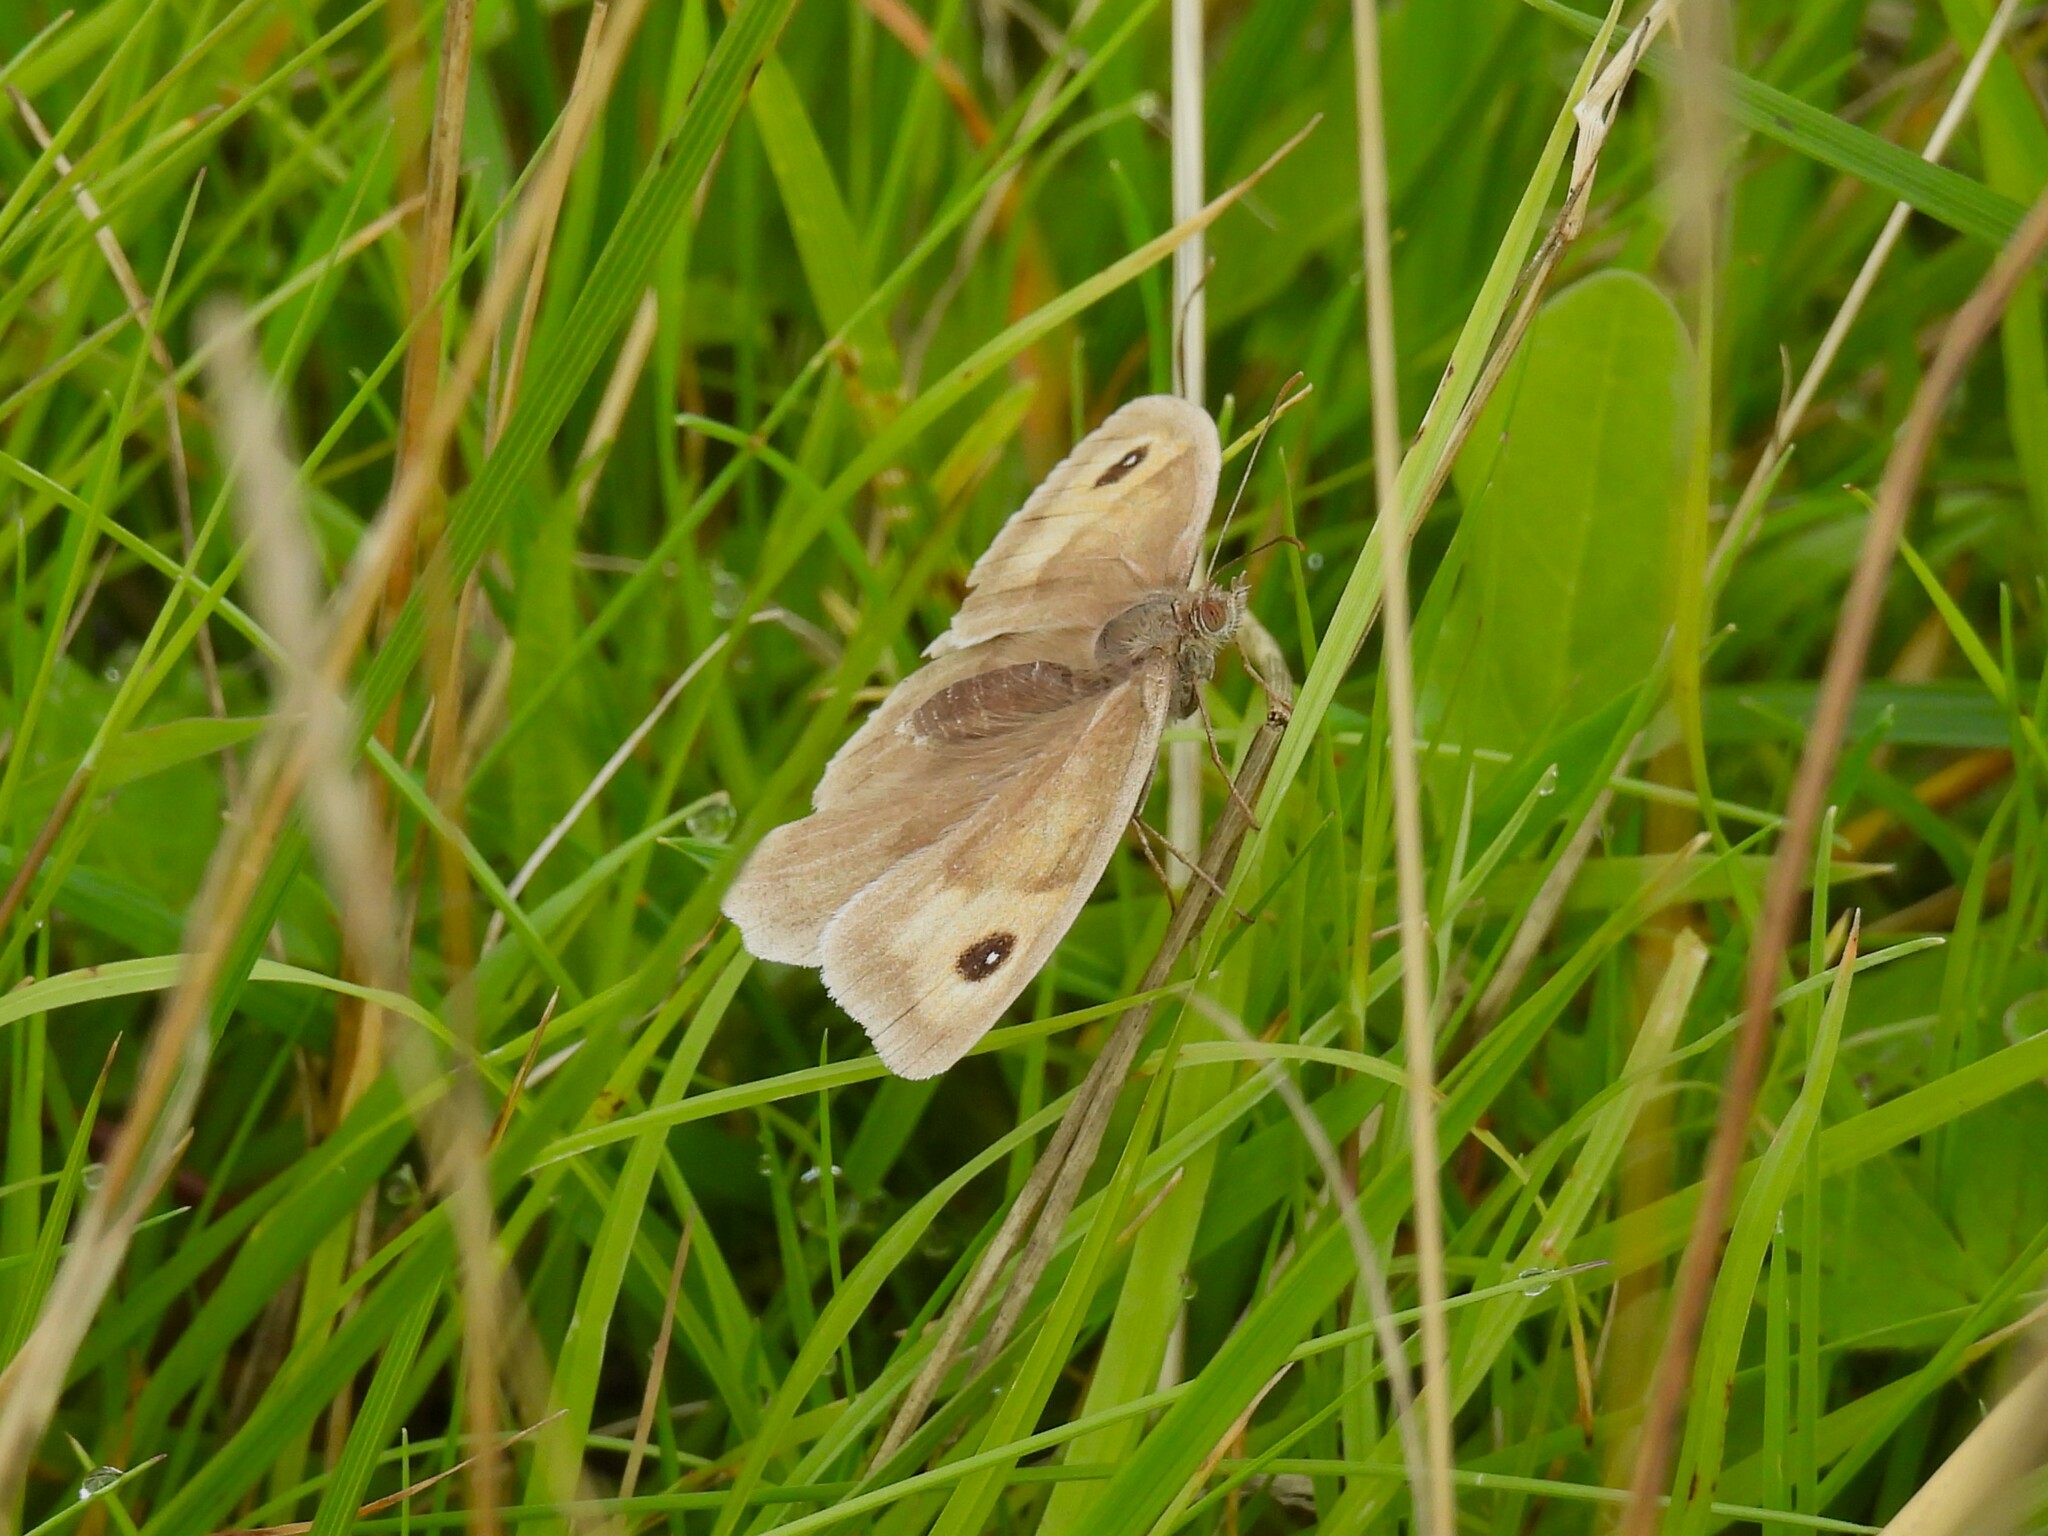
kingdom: Animalia
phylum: Arthropoda
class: Insecta
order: Lepidoptera
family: Nymphalidae
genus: Maniola
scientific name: Maniola jurtina
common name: Meadow brown
